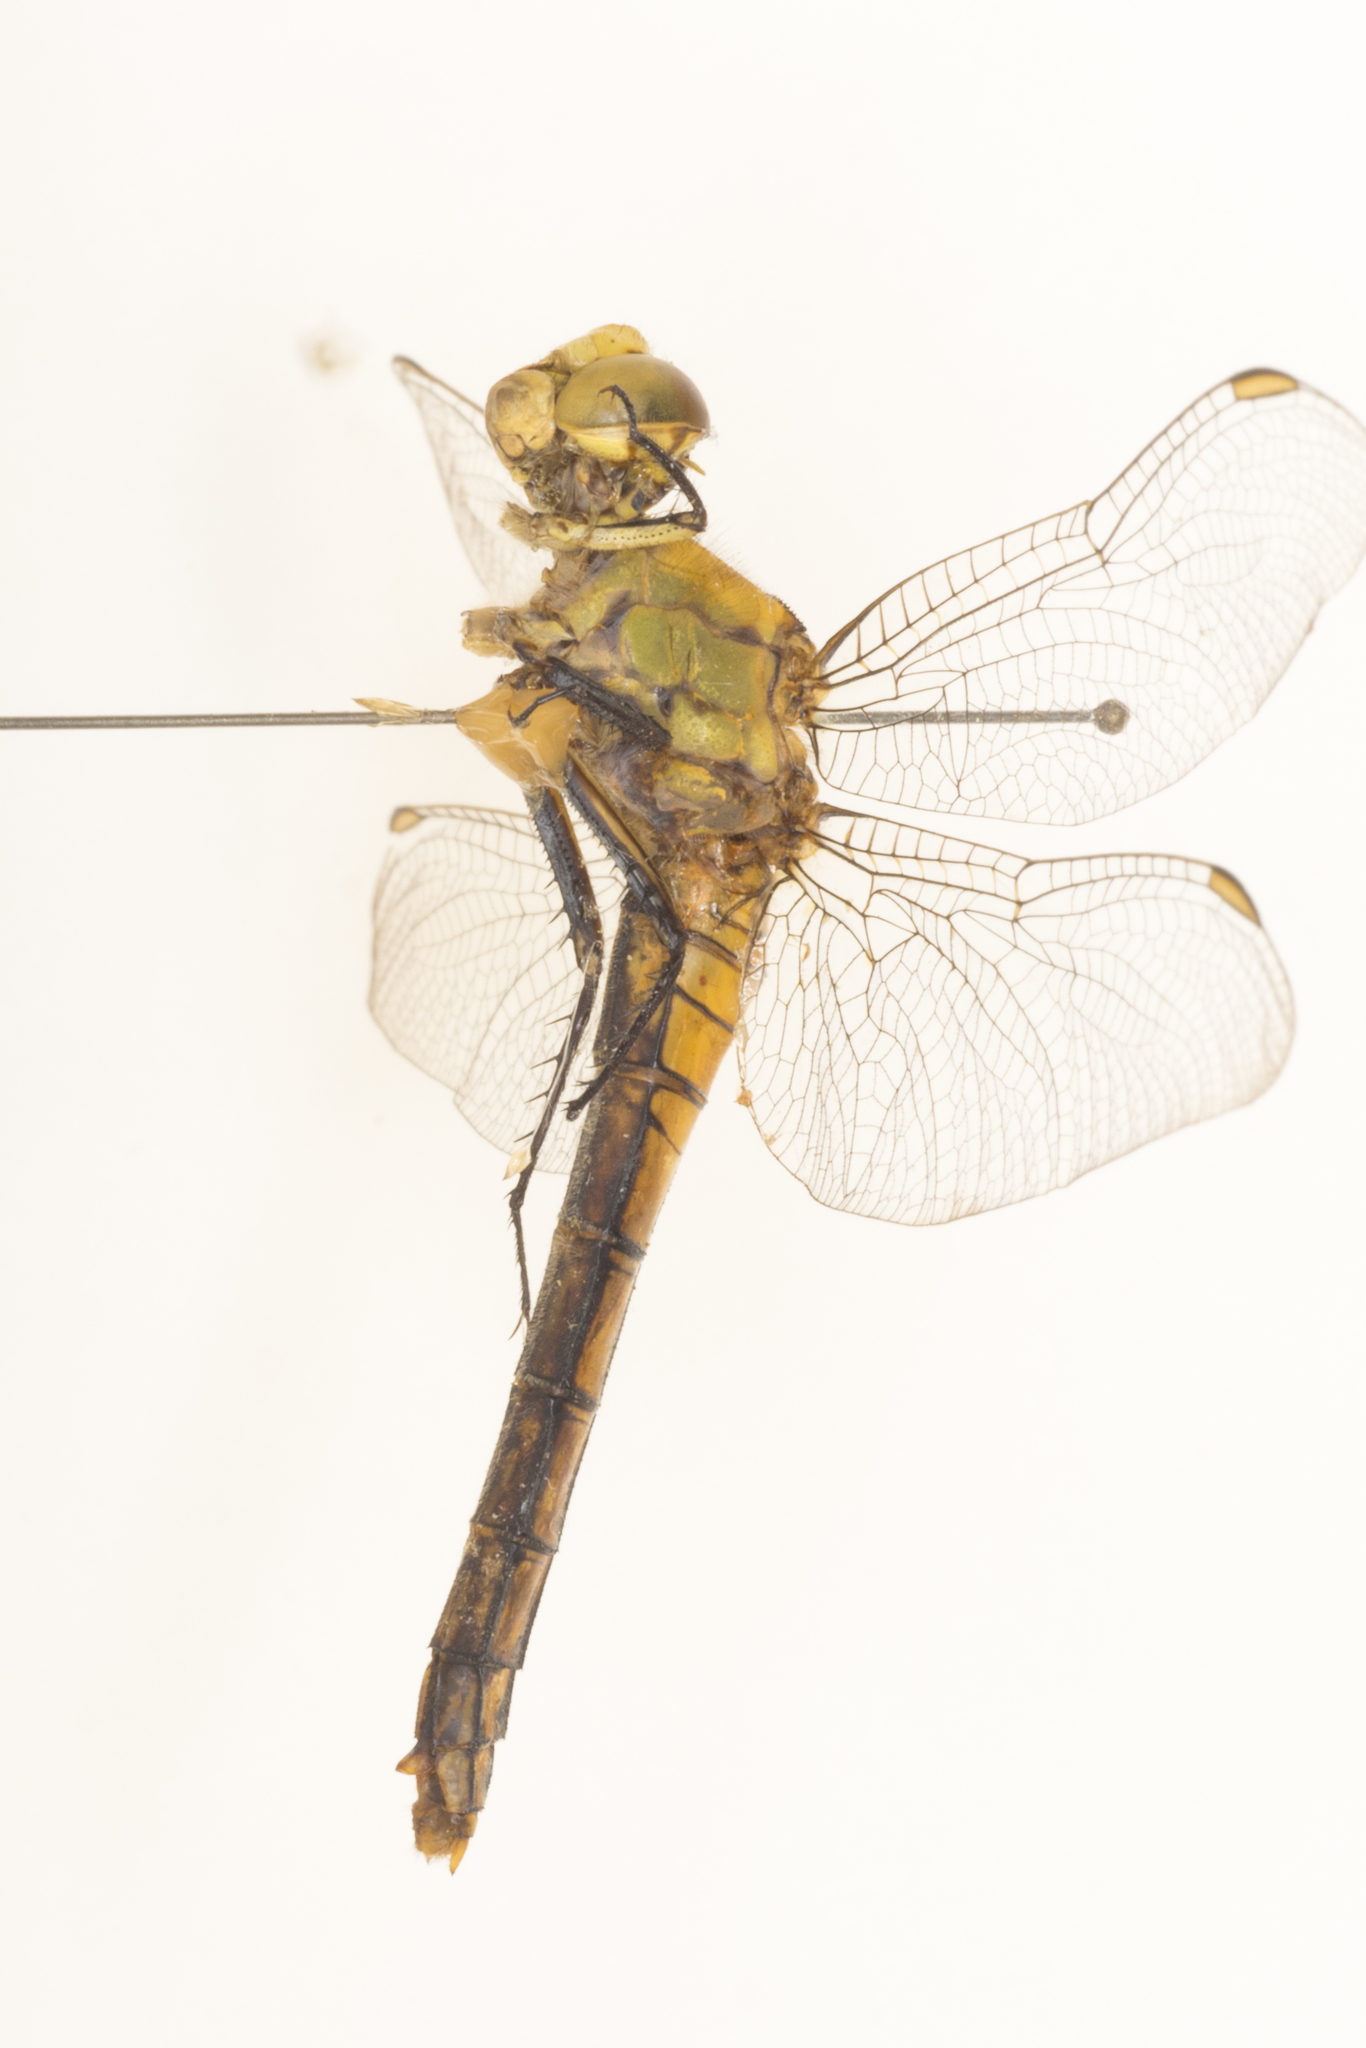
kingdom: Animalia
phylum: Arthropoda
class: Insecta
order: Odonata
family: Libellulidae
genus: Erythemis
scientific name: Erythemis collocata
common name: Western pondhawk
